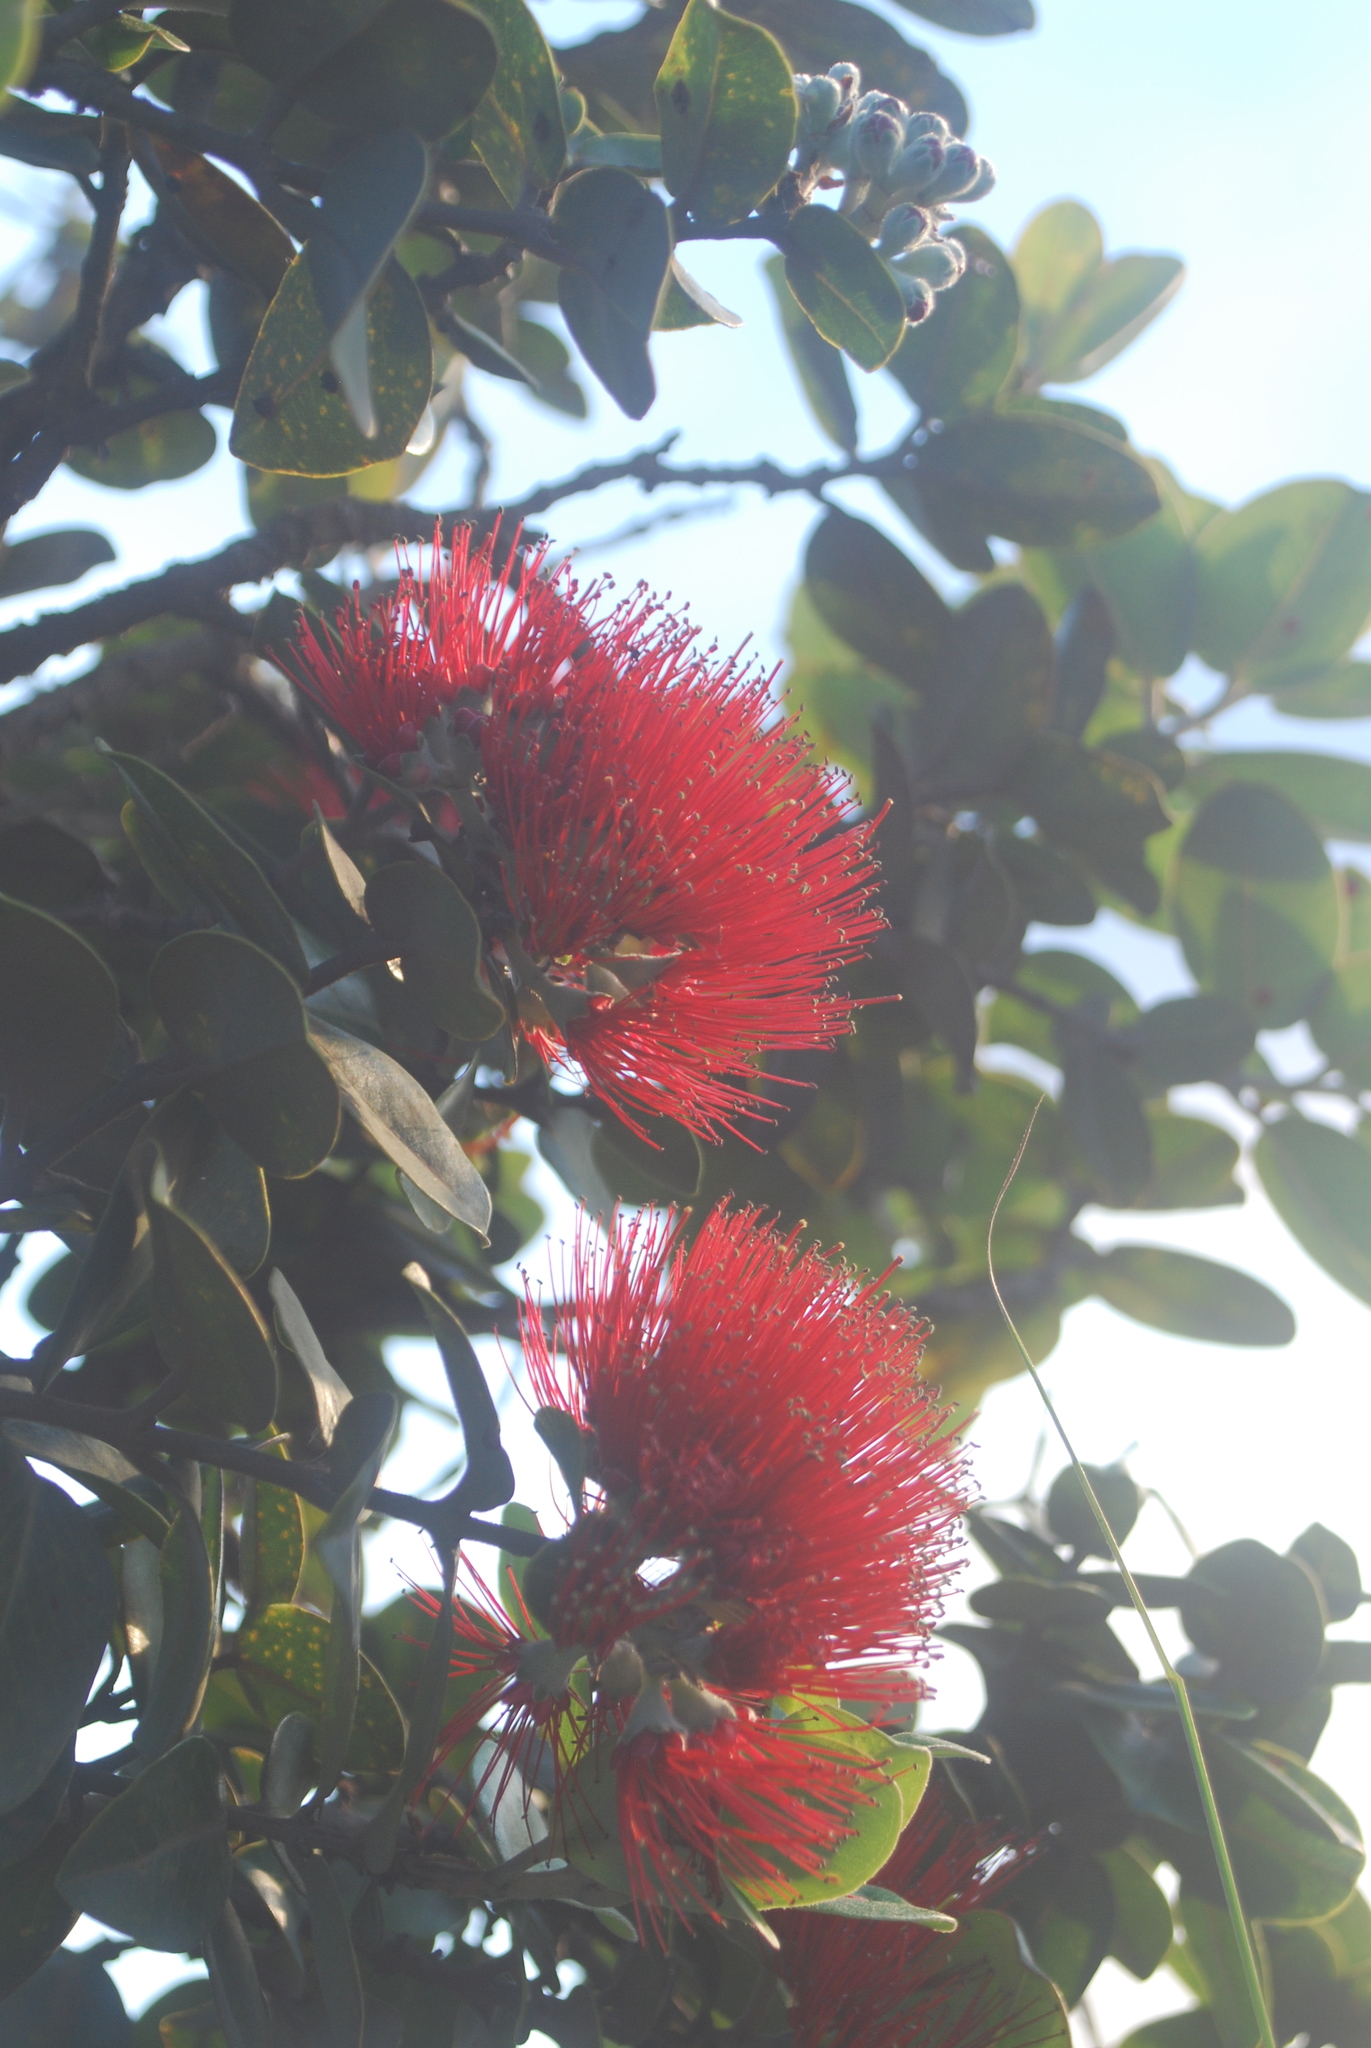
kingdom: Plantae
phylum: Tracheophyta
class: Magnoliopsida
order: Myrtales
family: Myrtaceae
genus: Metrosideros
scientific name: Metrosideros polymorpha
